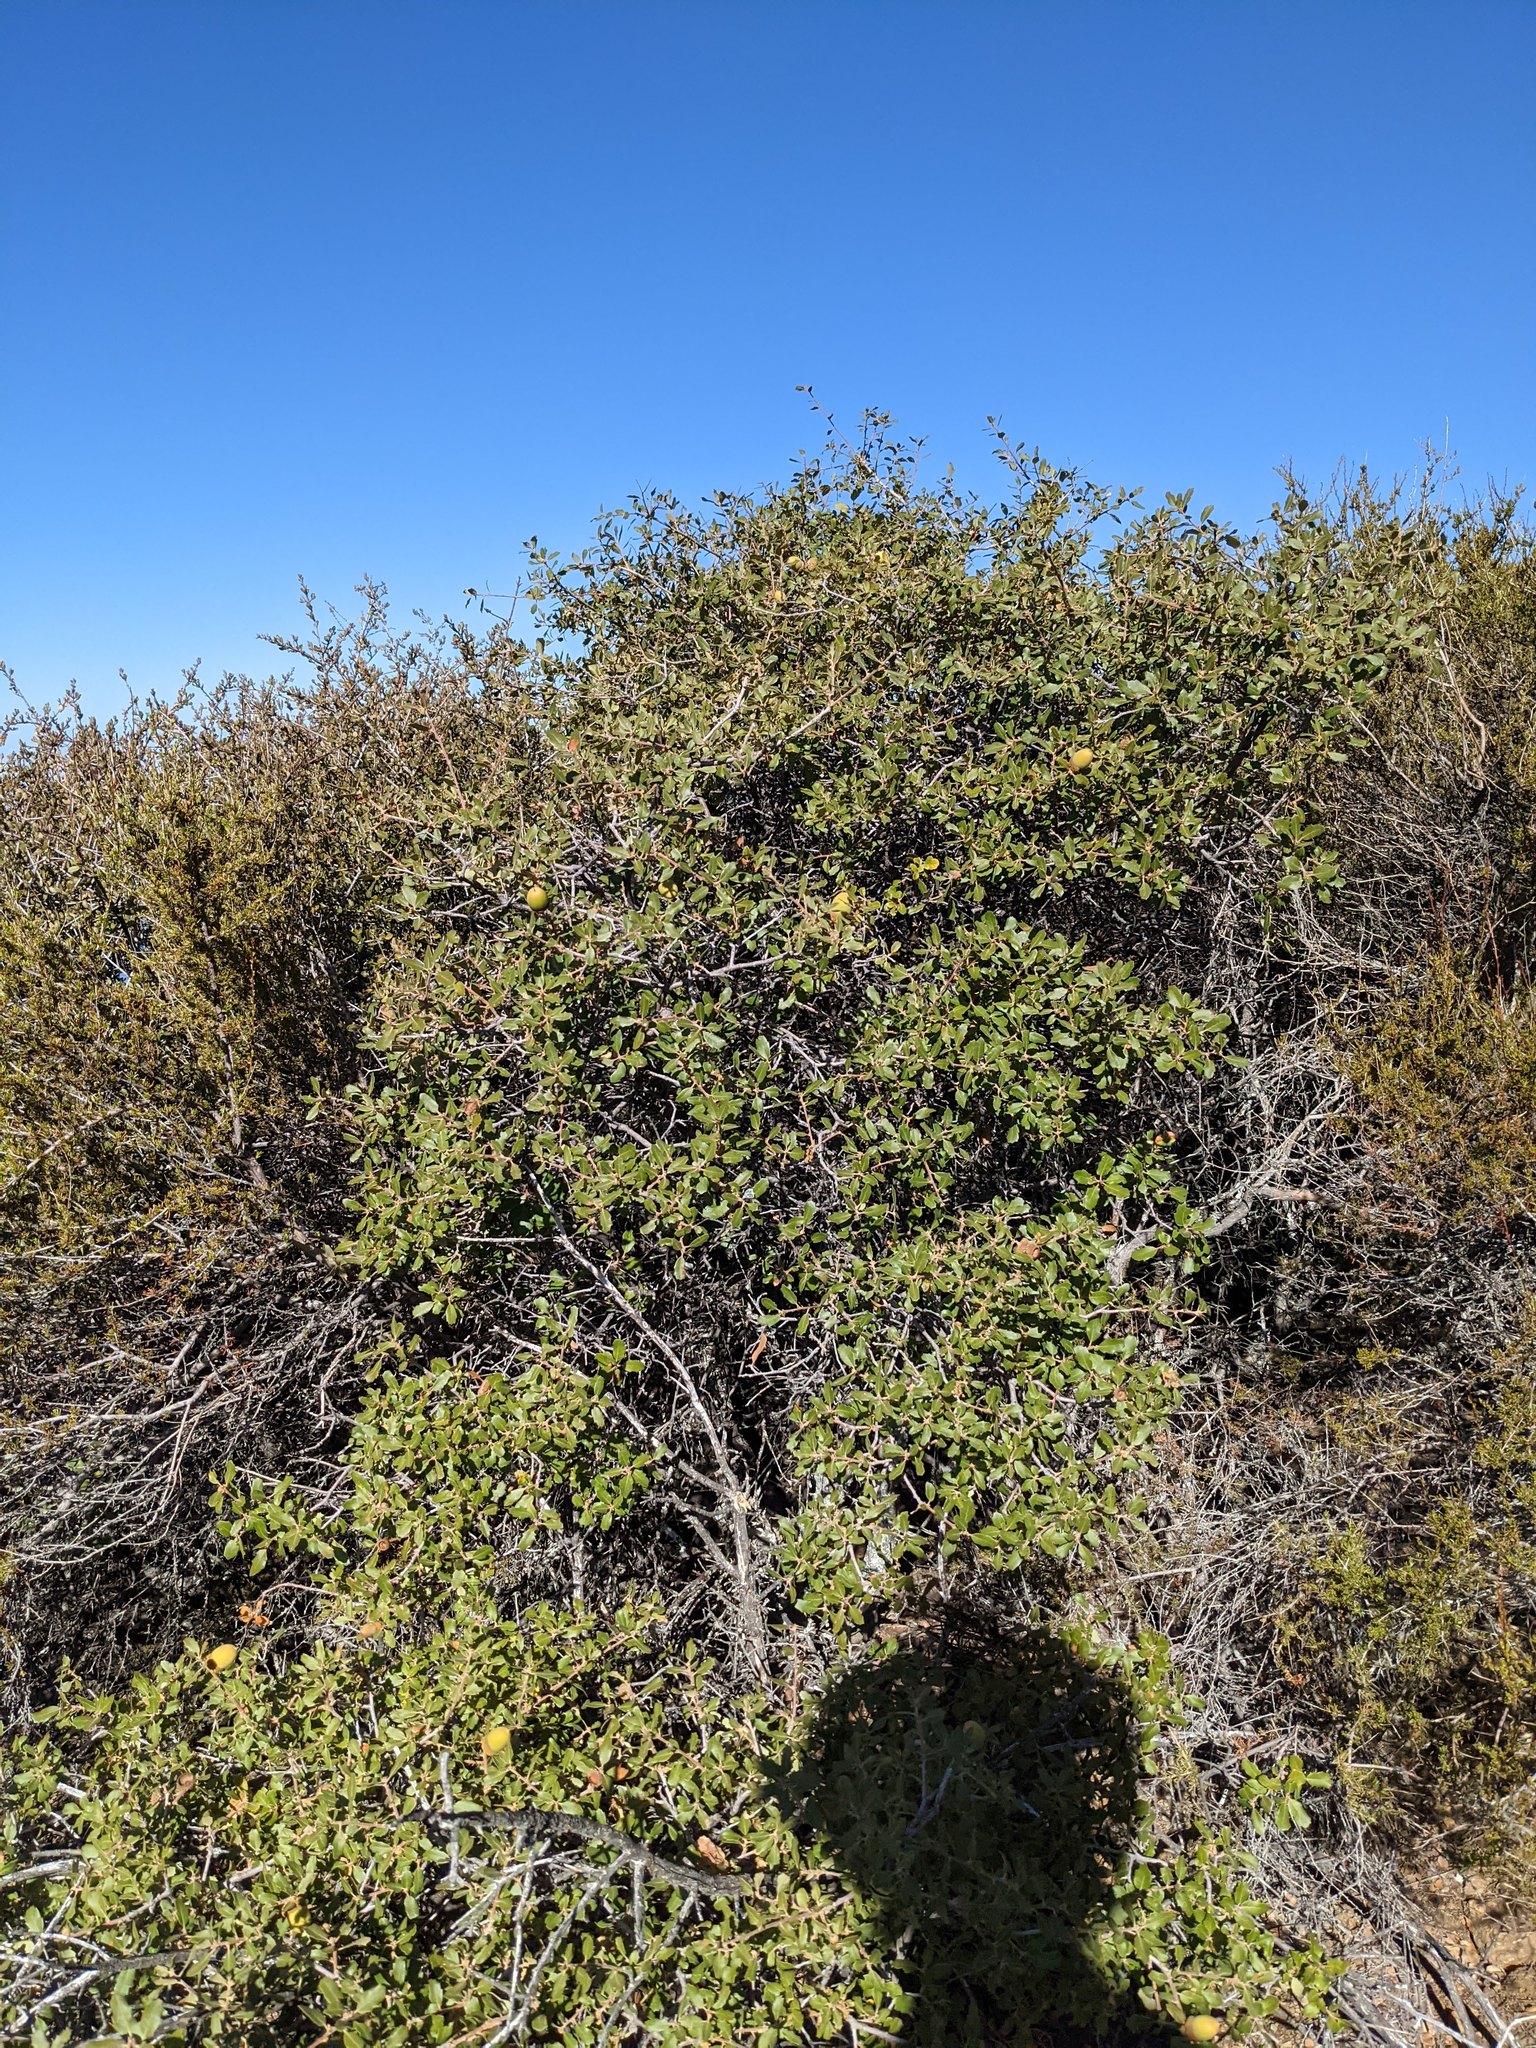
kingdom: Plantae
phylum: Tracheophyta
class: Magnoliopsida
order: Fagales
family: Fagaceae
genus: Quercus
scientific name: Quercus berberidifolia
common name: California scrub oak
